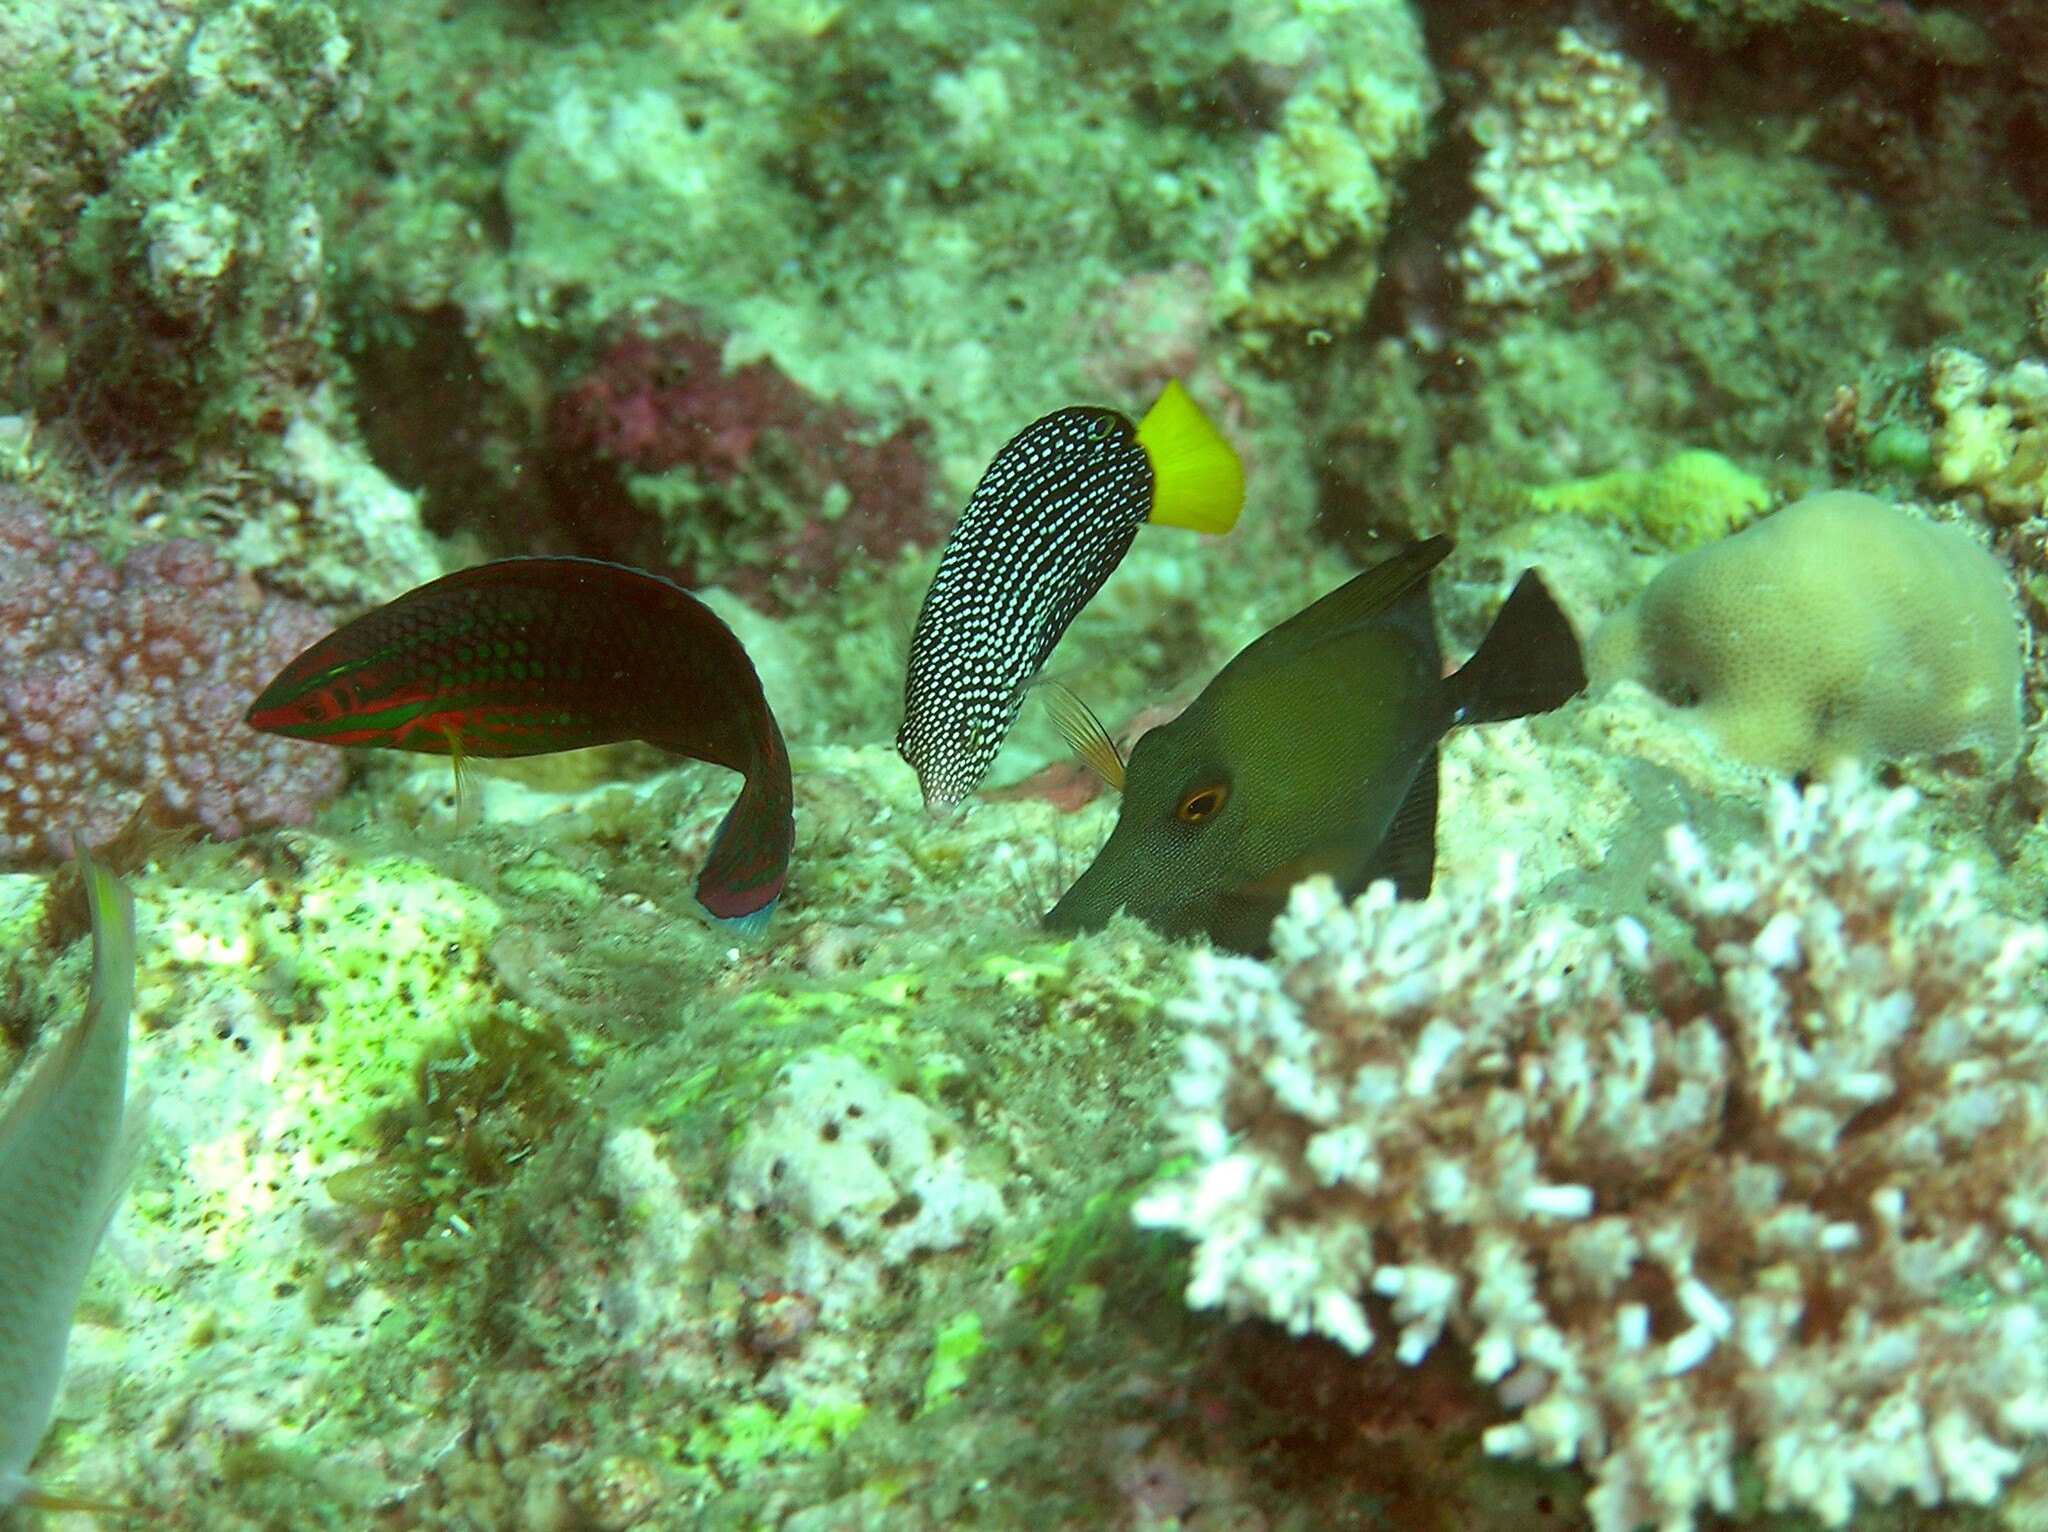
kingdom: Animalia
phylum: Chordata
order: Perciformes
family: Labridae
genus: Halichoeres
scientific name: Halichoeres biocellatus
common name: False-eyed wrasse
